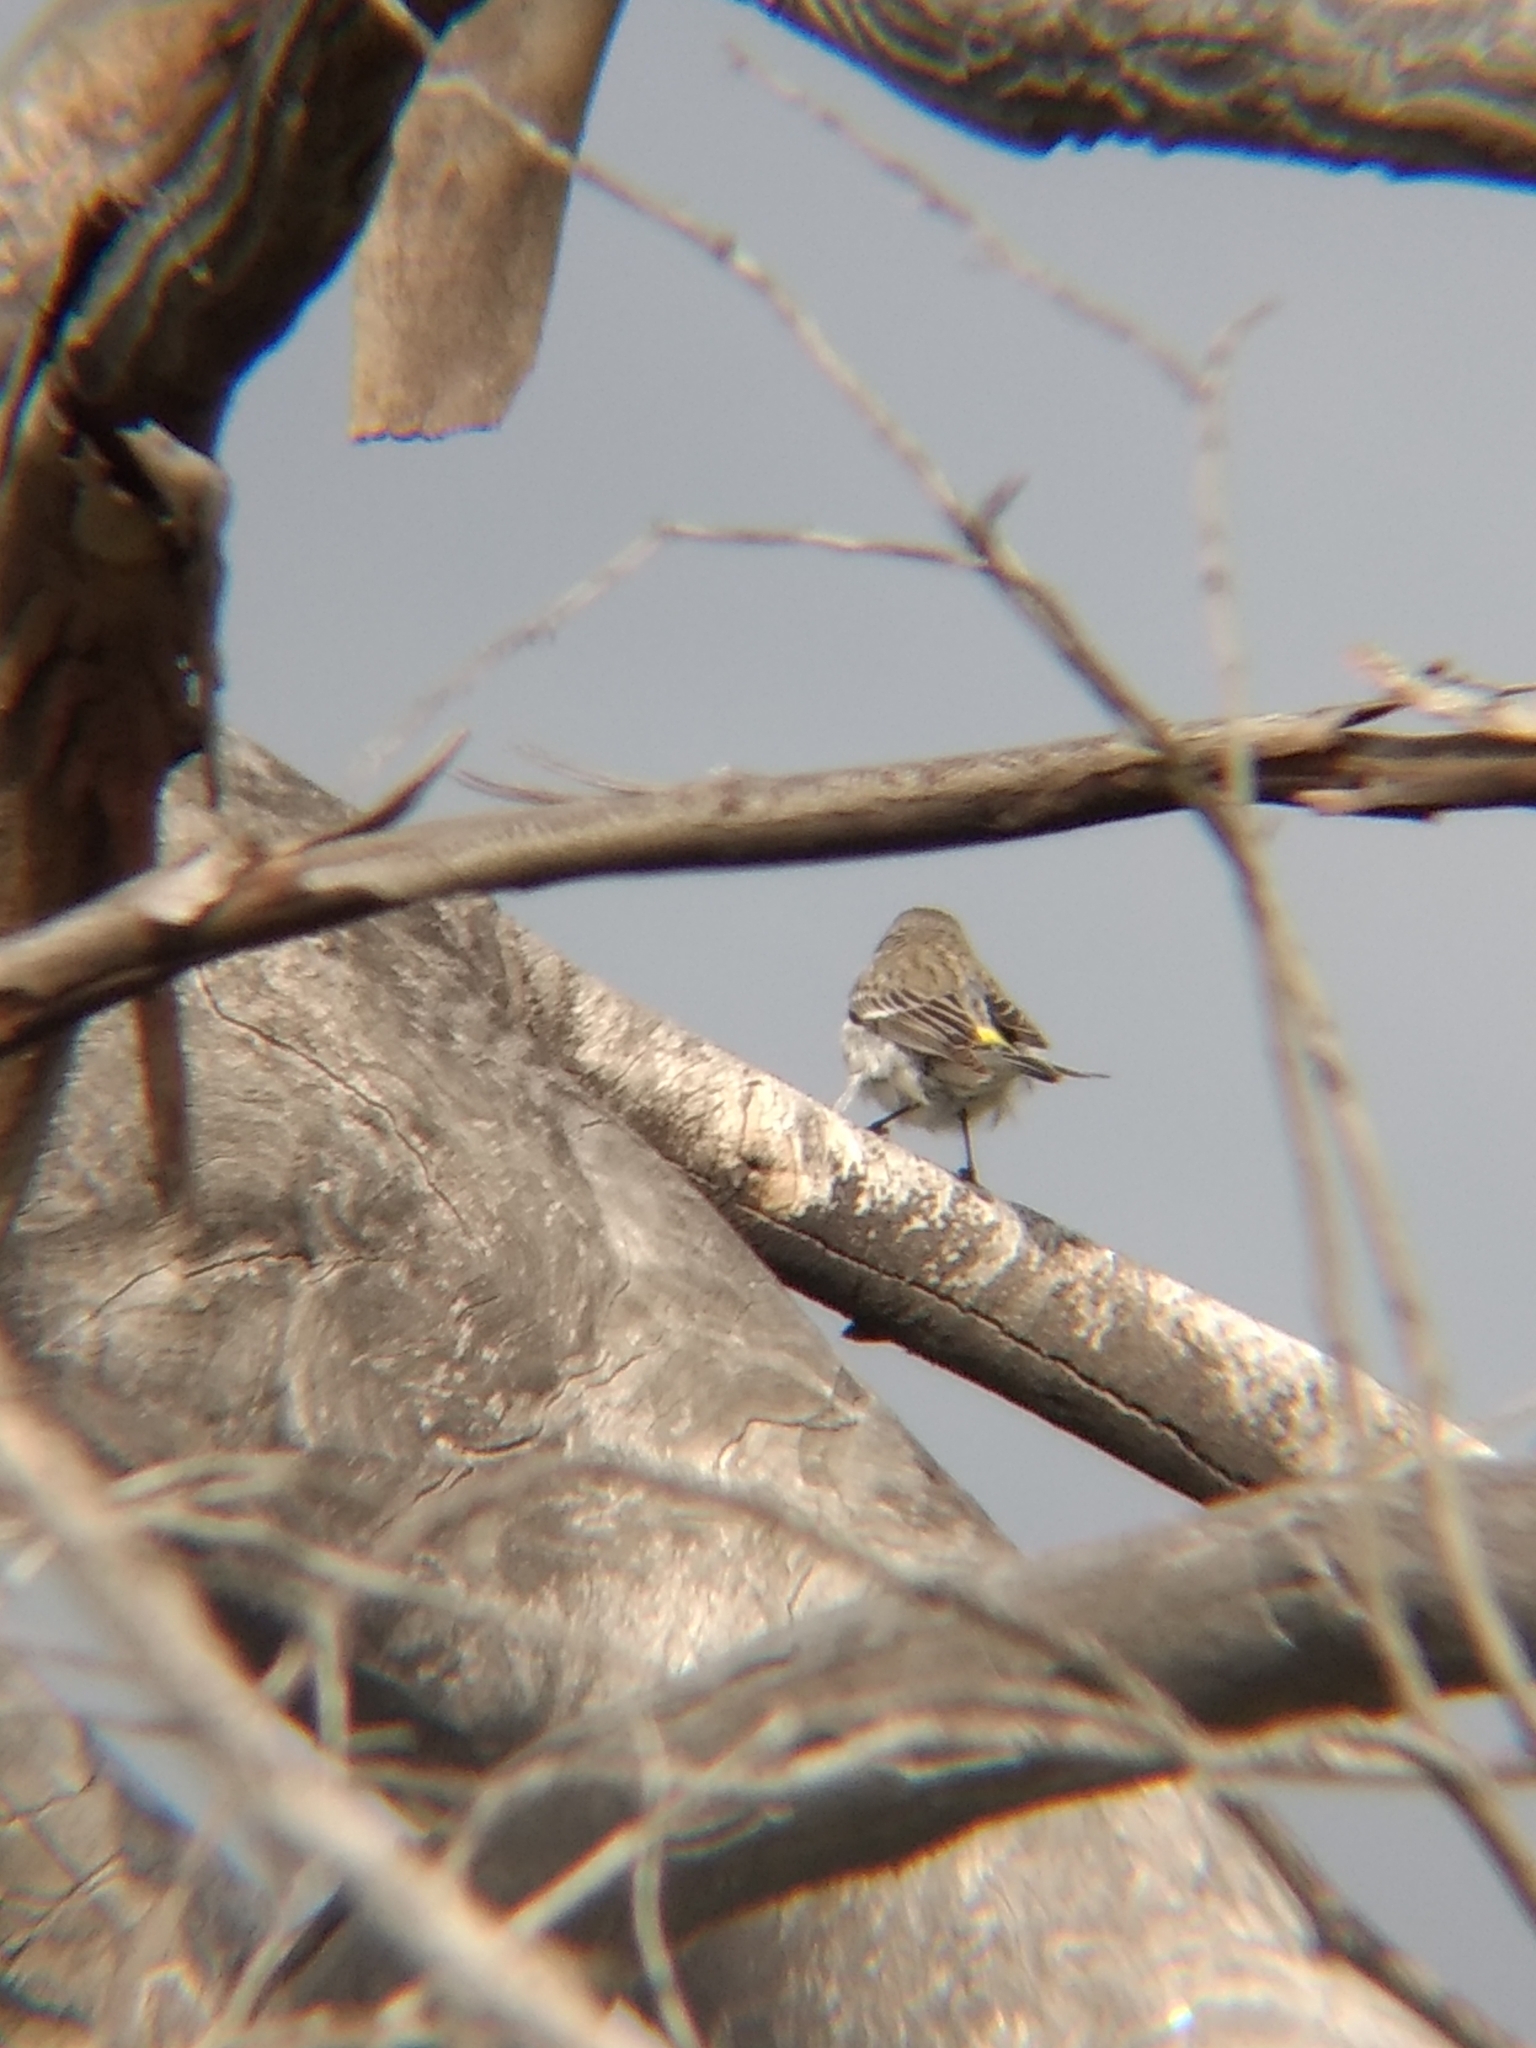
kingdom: Animalia
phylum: Chordata
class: Aves
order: Passeriformes
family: Parulidae
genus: Setophaga
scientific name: Setophaga coronata
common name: Myrtle warbler
